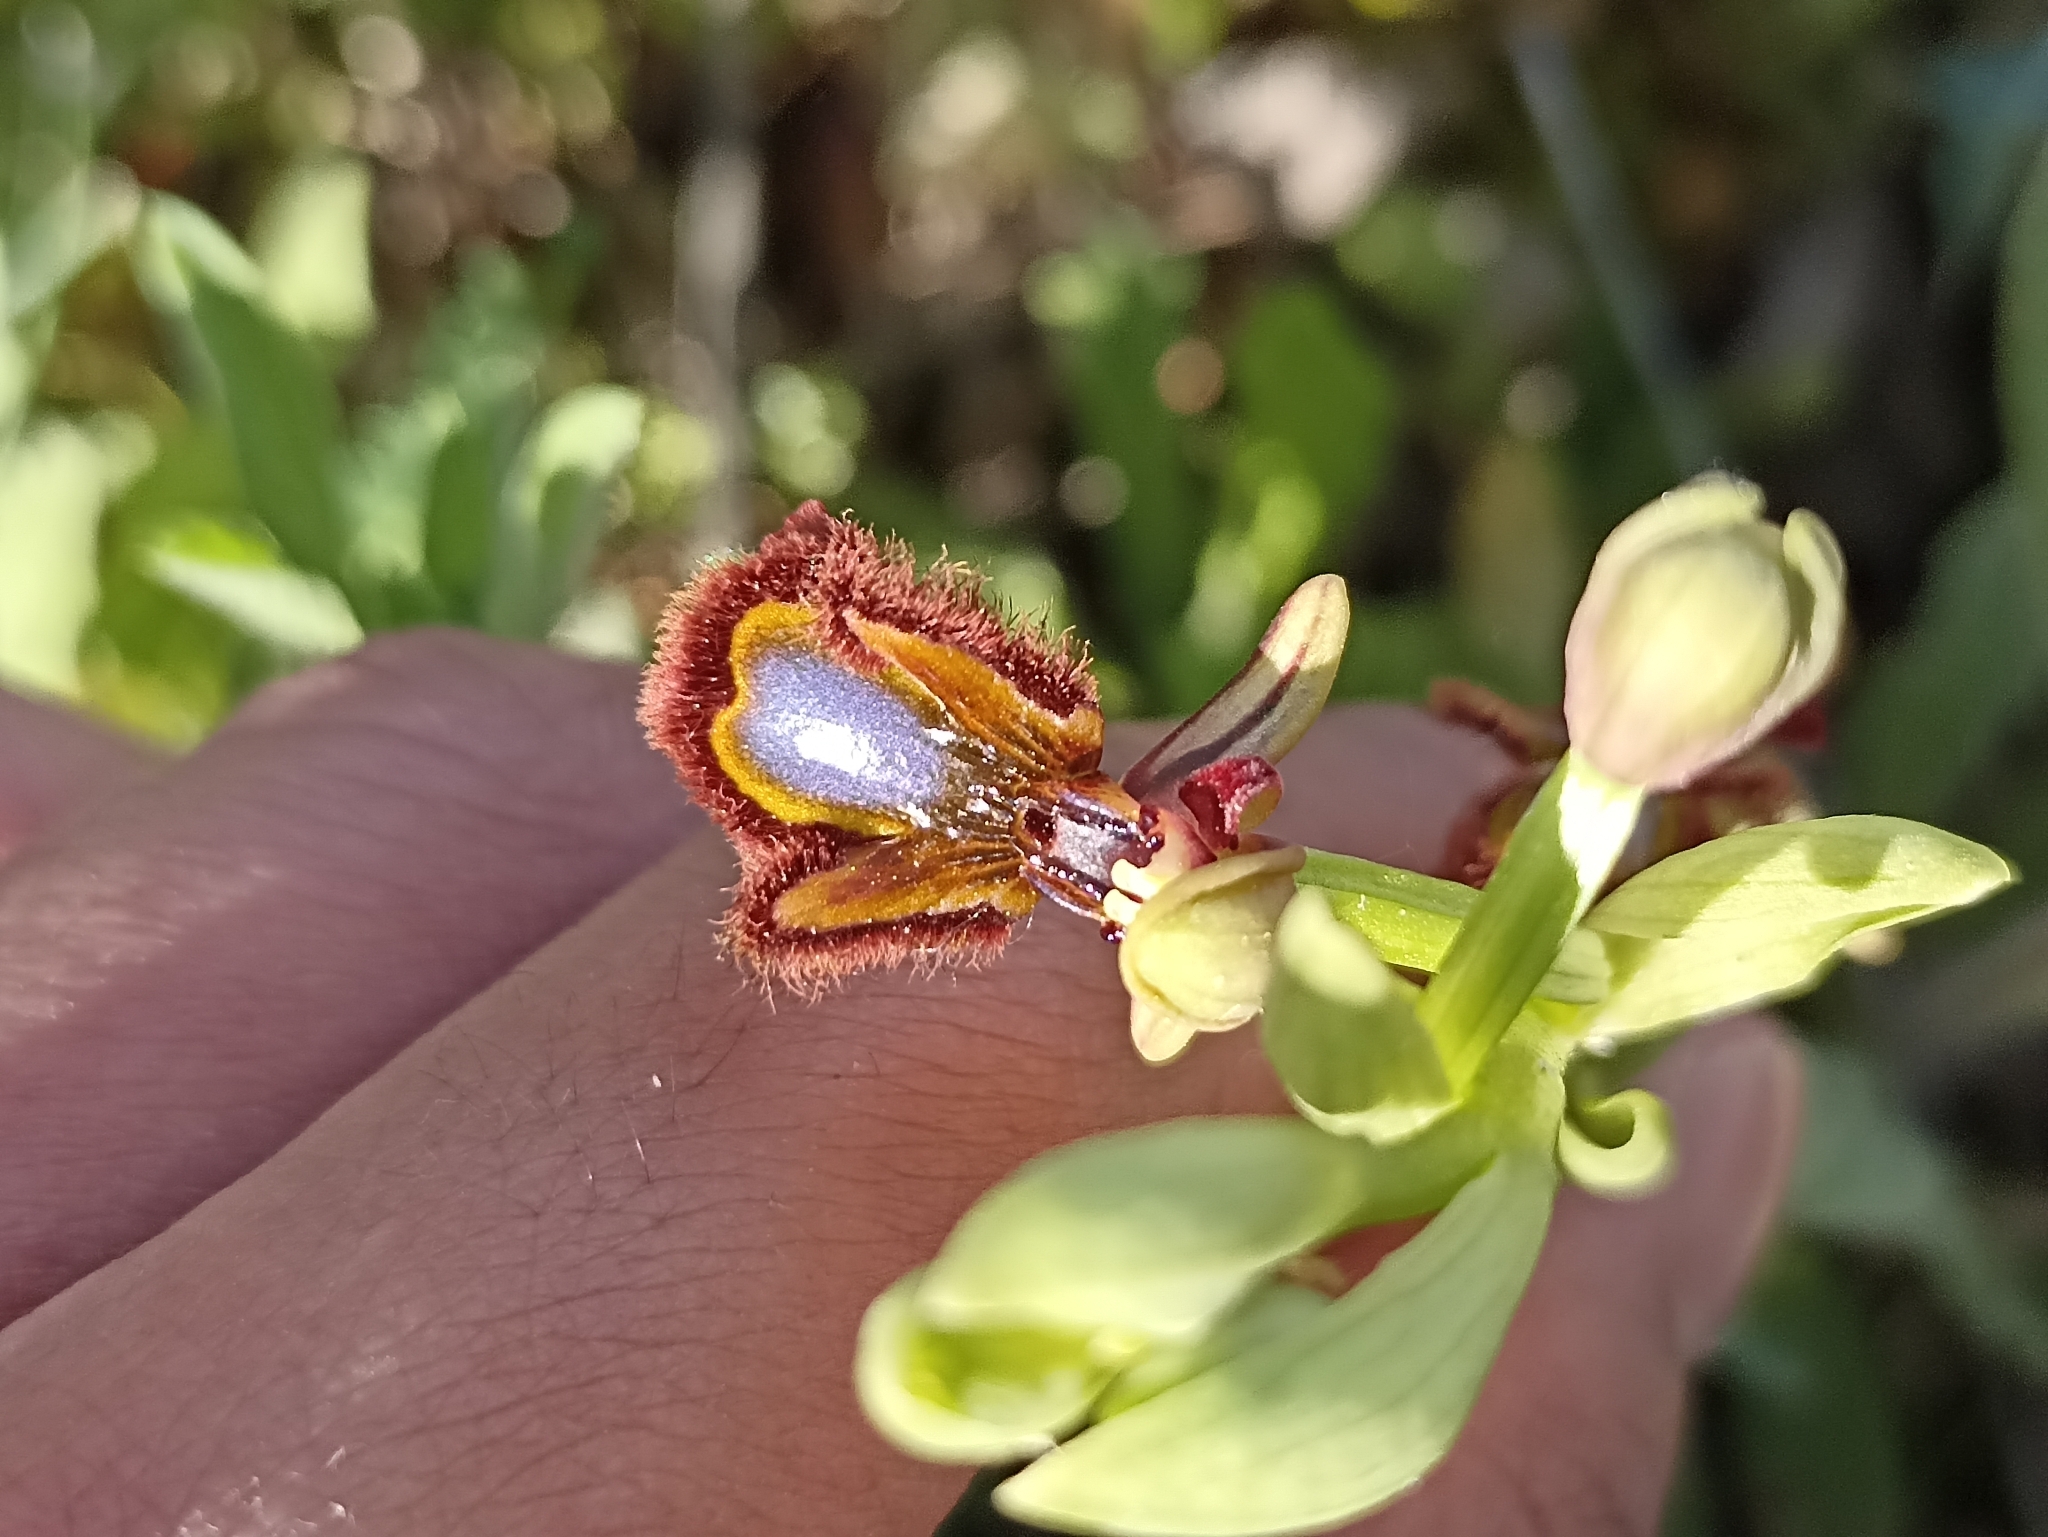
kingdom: Plantae
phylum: Tracheophyta
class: Liliopsida
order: Asparagales
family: Orchidaceae
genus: Ophrys
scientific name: Ophrys speculum
